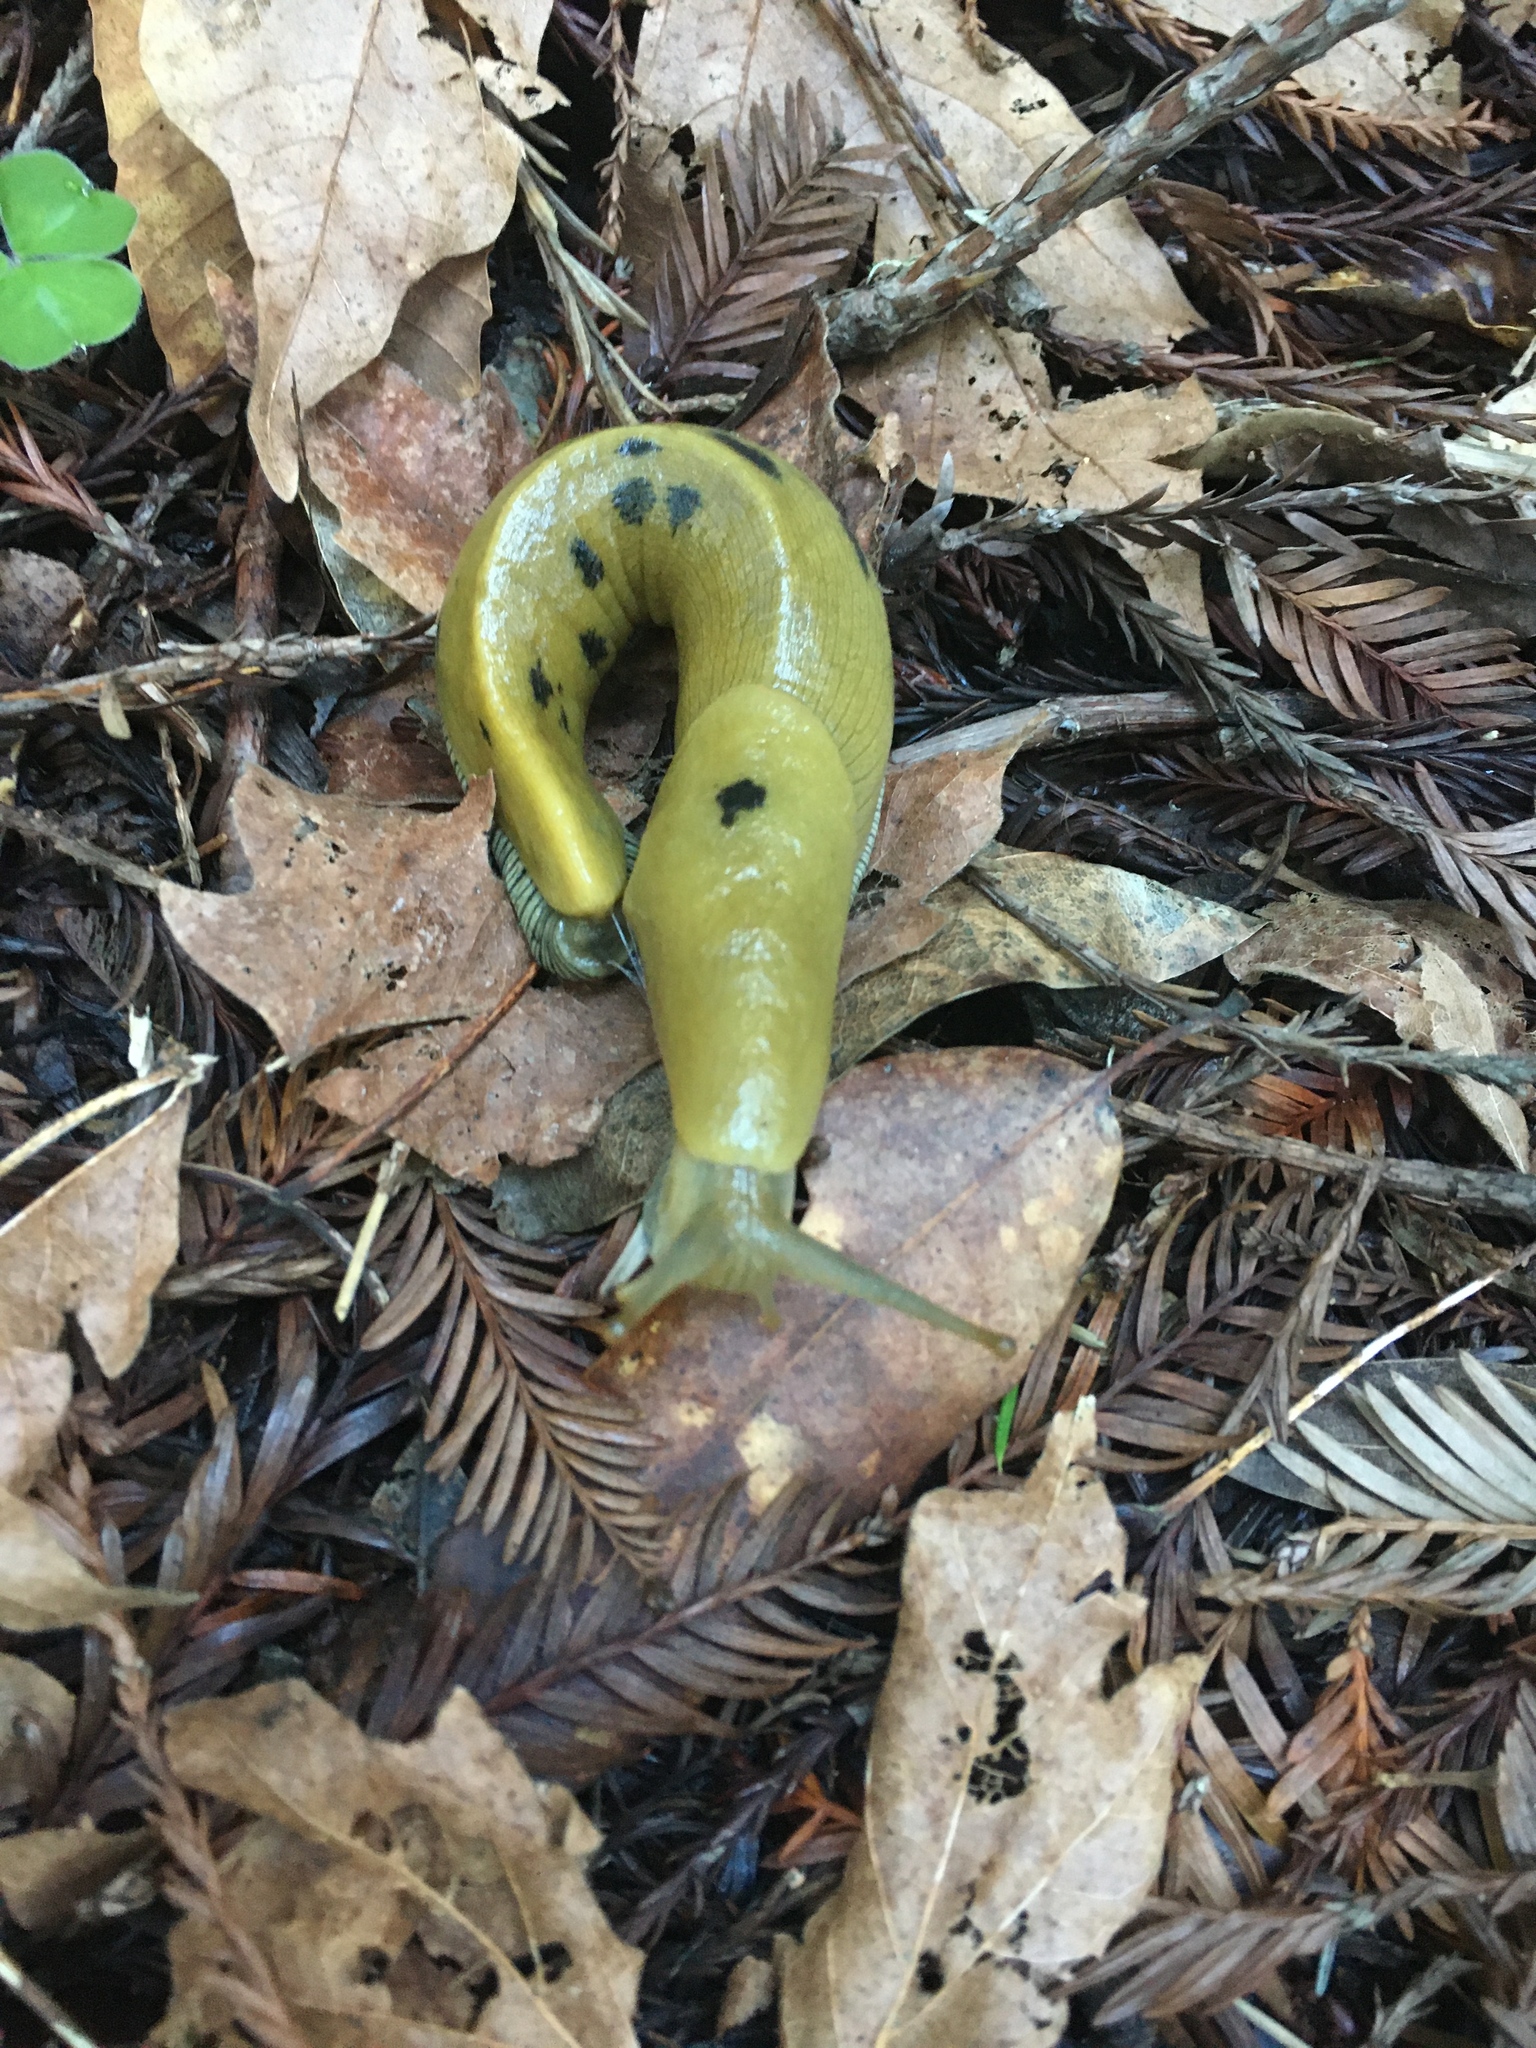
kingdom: Animalia
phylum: Mollusca
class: Gastropoda
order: Stylommatophora
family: Ariolimacidae
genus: Ariolimax
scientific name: Ariolimax buttoni
